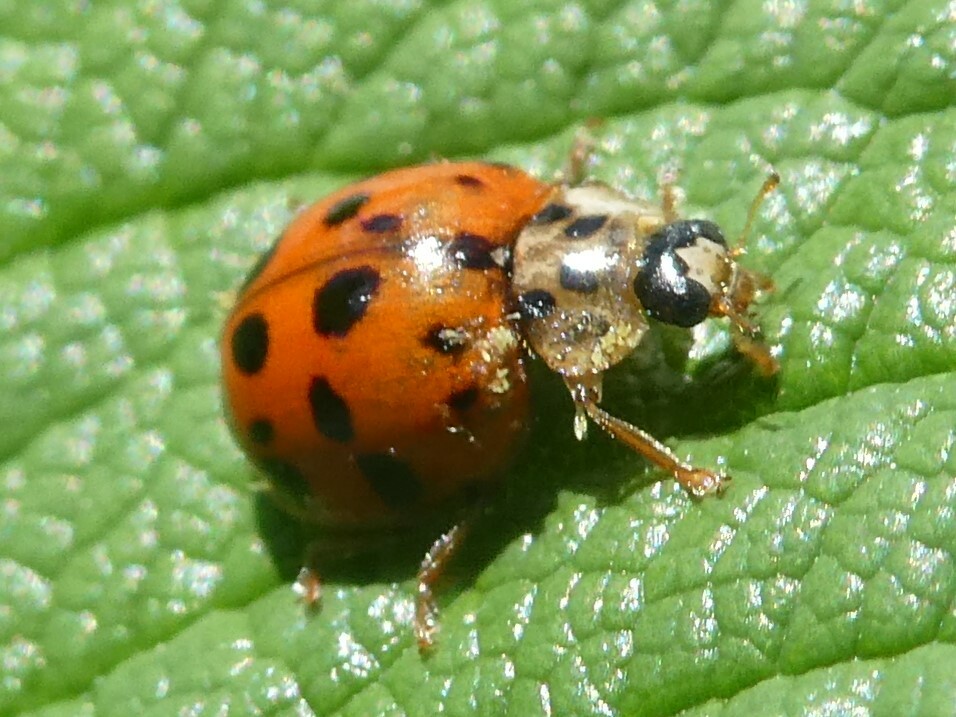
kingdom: Animalia
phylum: Arthropoda
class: Insecta
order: Coleoptera
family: Coccinellidae
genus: Harmonia
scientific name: Harmonia axyridis
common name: Harlequin ladybird
